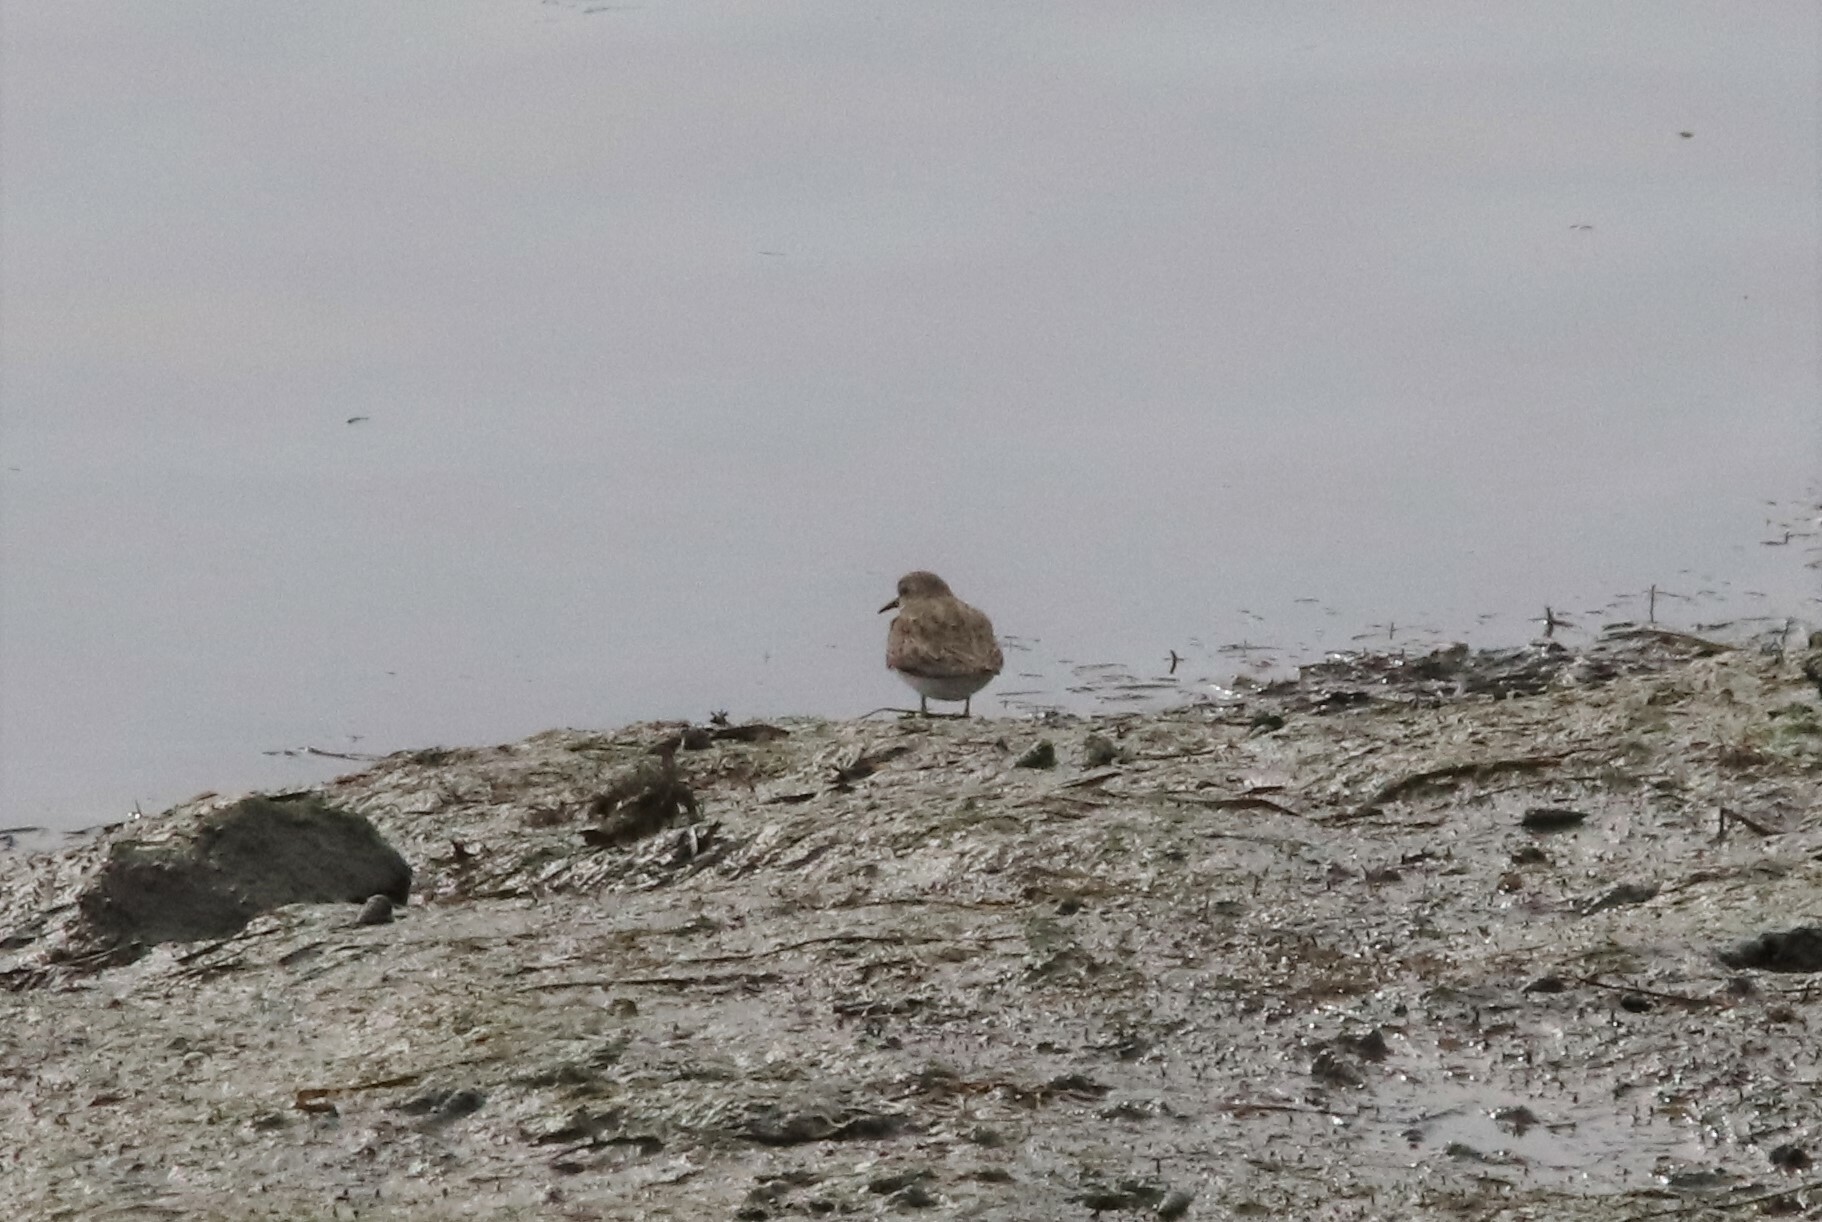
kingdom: Animalia
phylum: Chordata
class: Aves
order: Charadriiformes
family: Scolopacidae
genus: Calidris
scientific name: Calidris minutilla
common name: Least sandpiper
